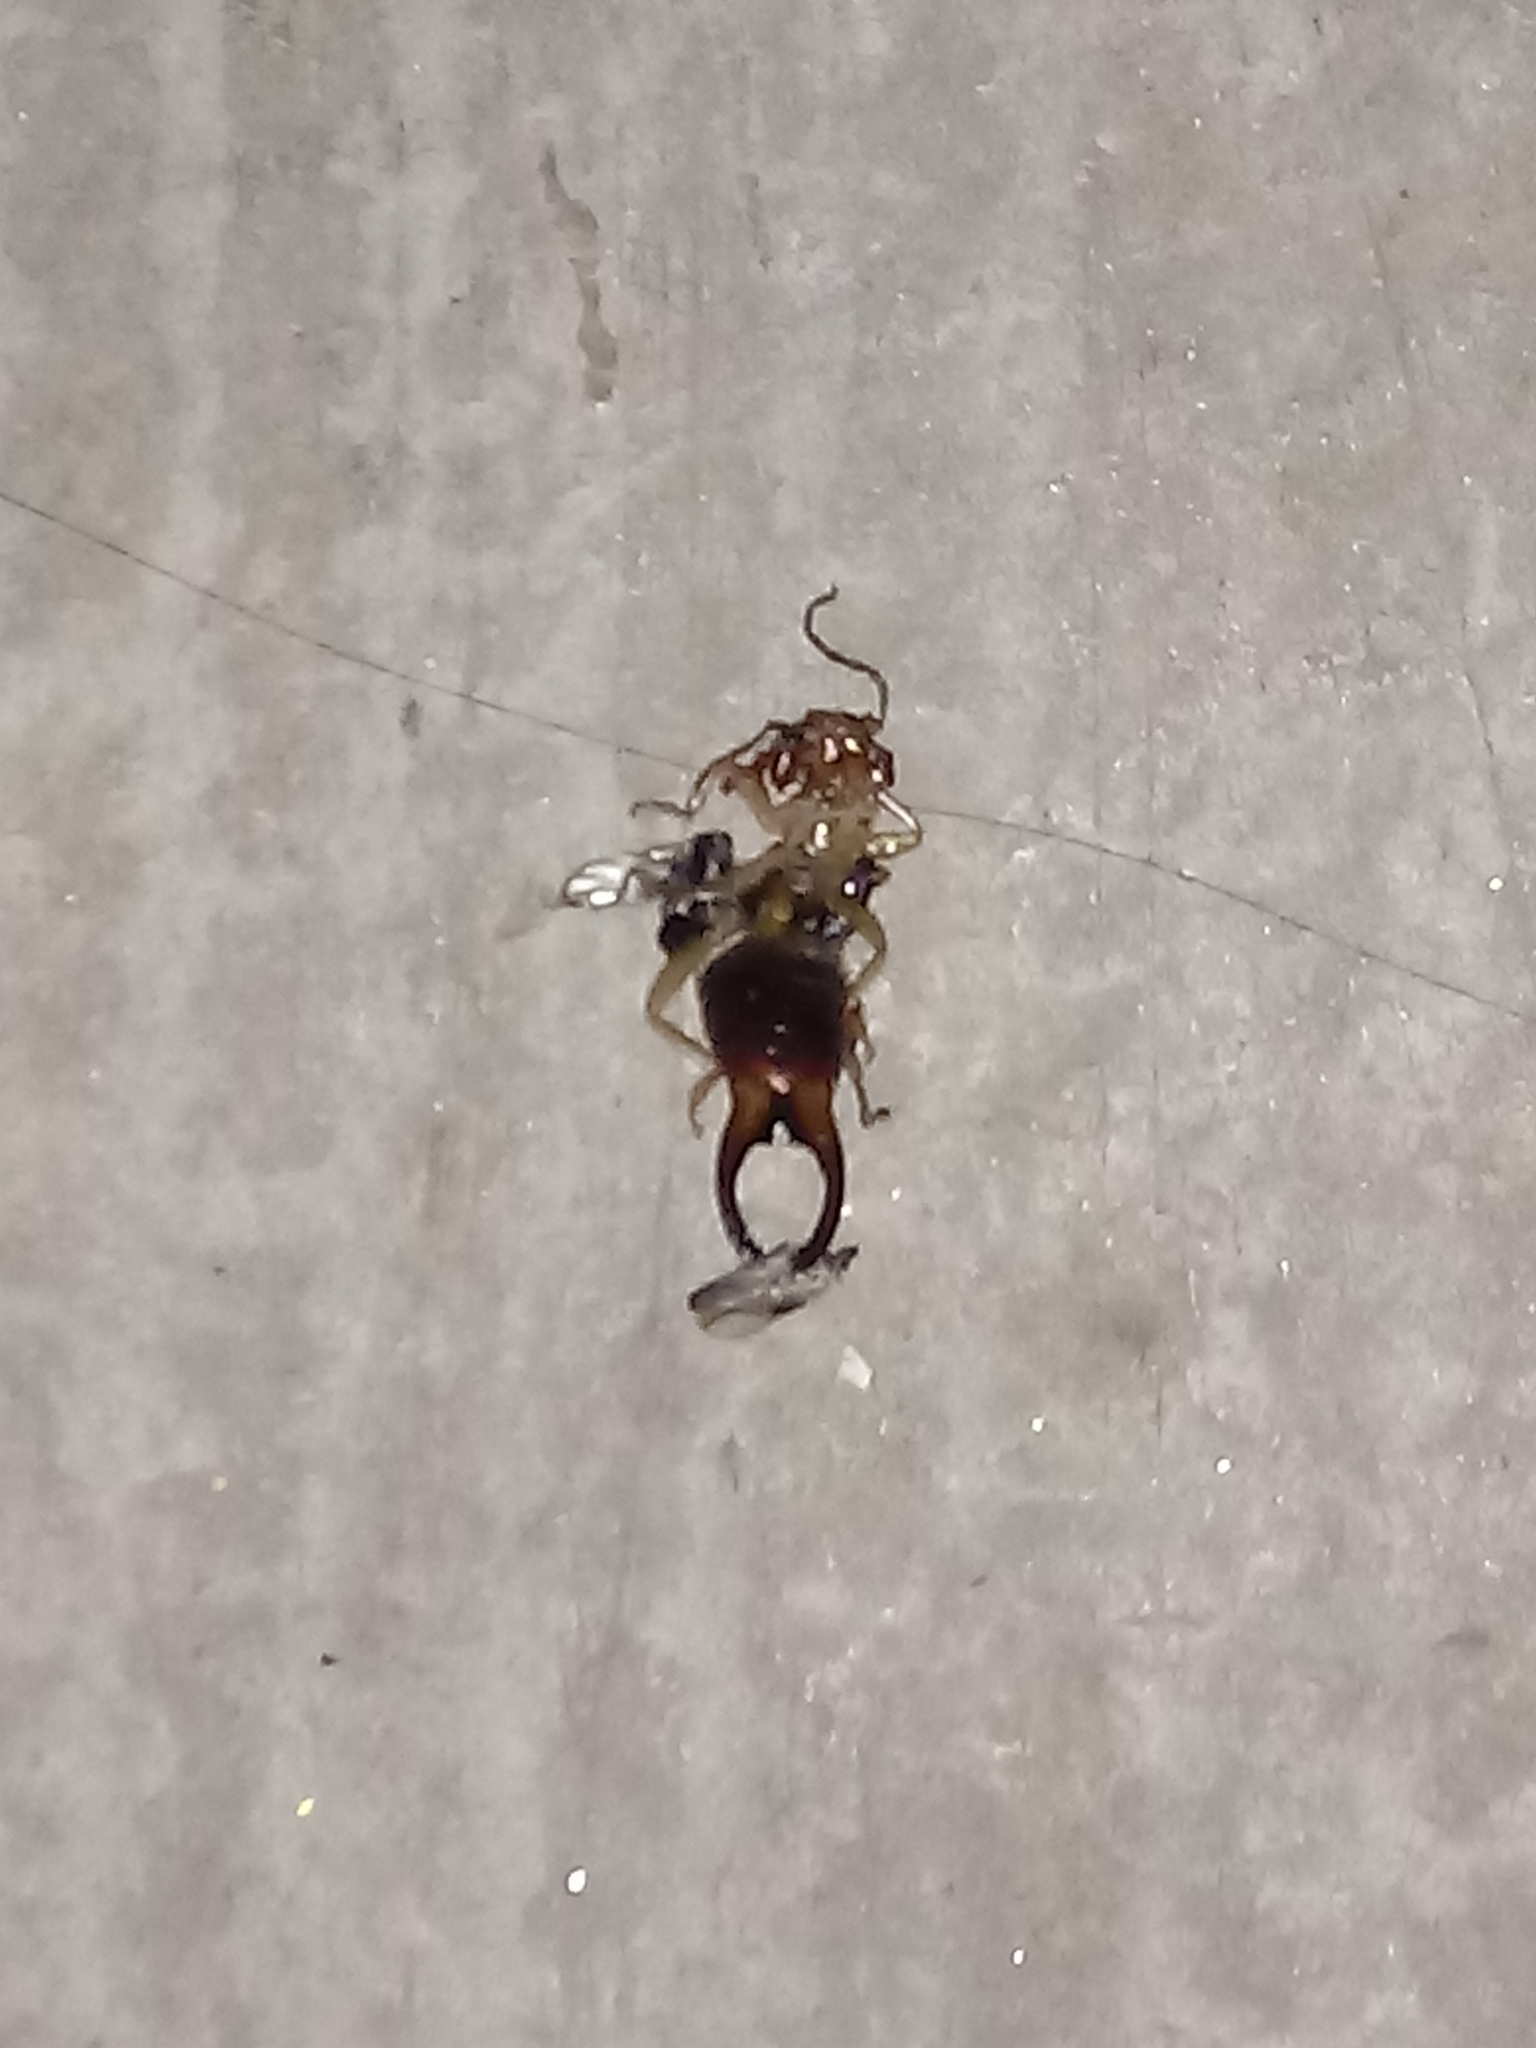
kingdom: Animalia
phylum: Arthropoda
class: Insecta
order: Dermaptera
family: Forficulidae
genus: Forficula
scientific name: Forficula
